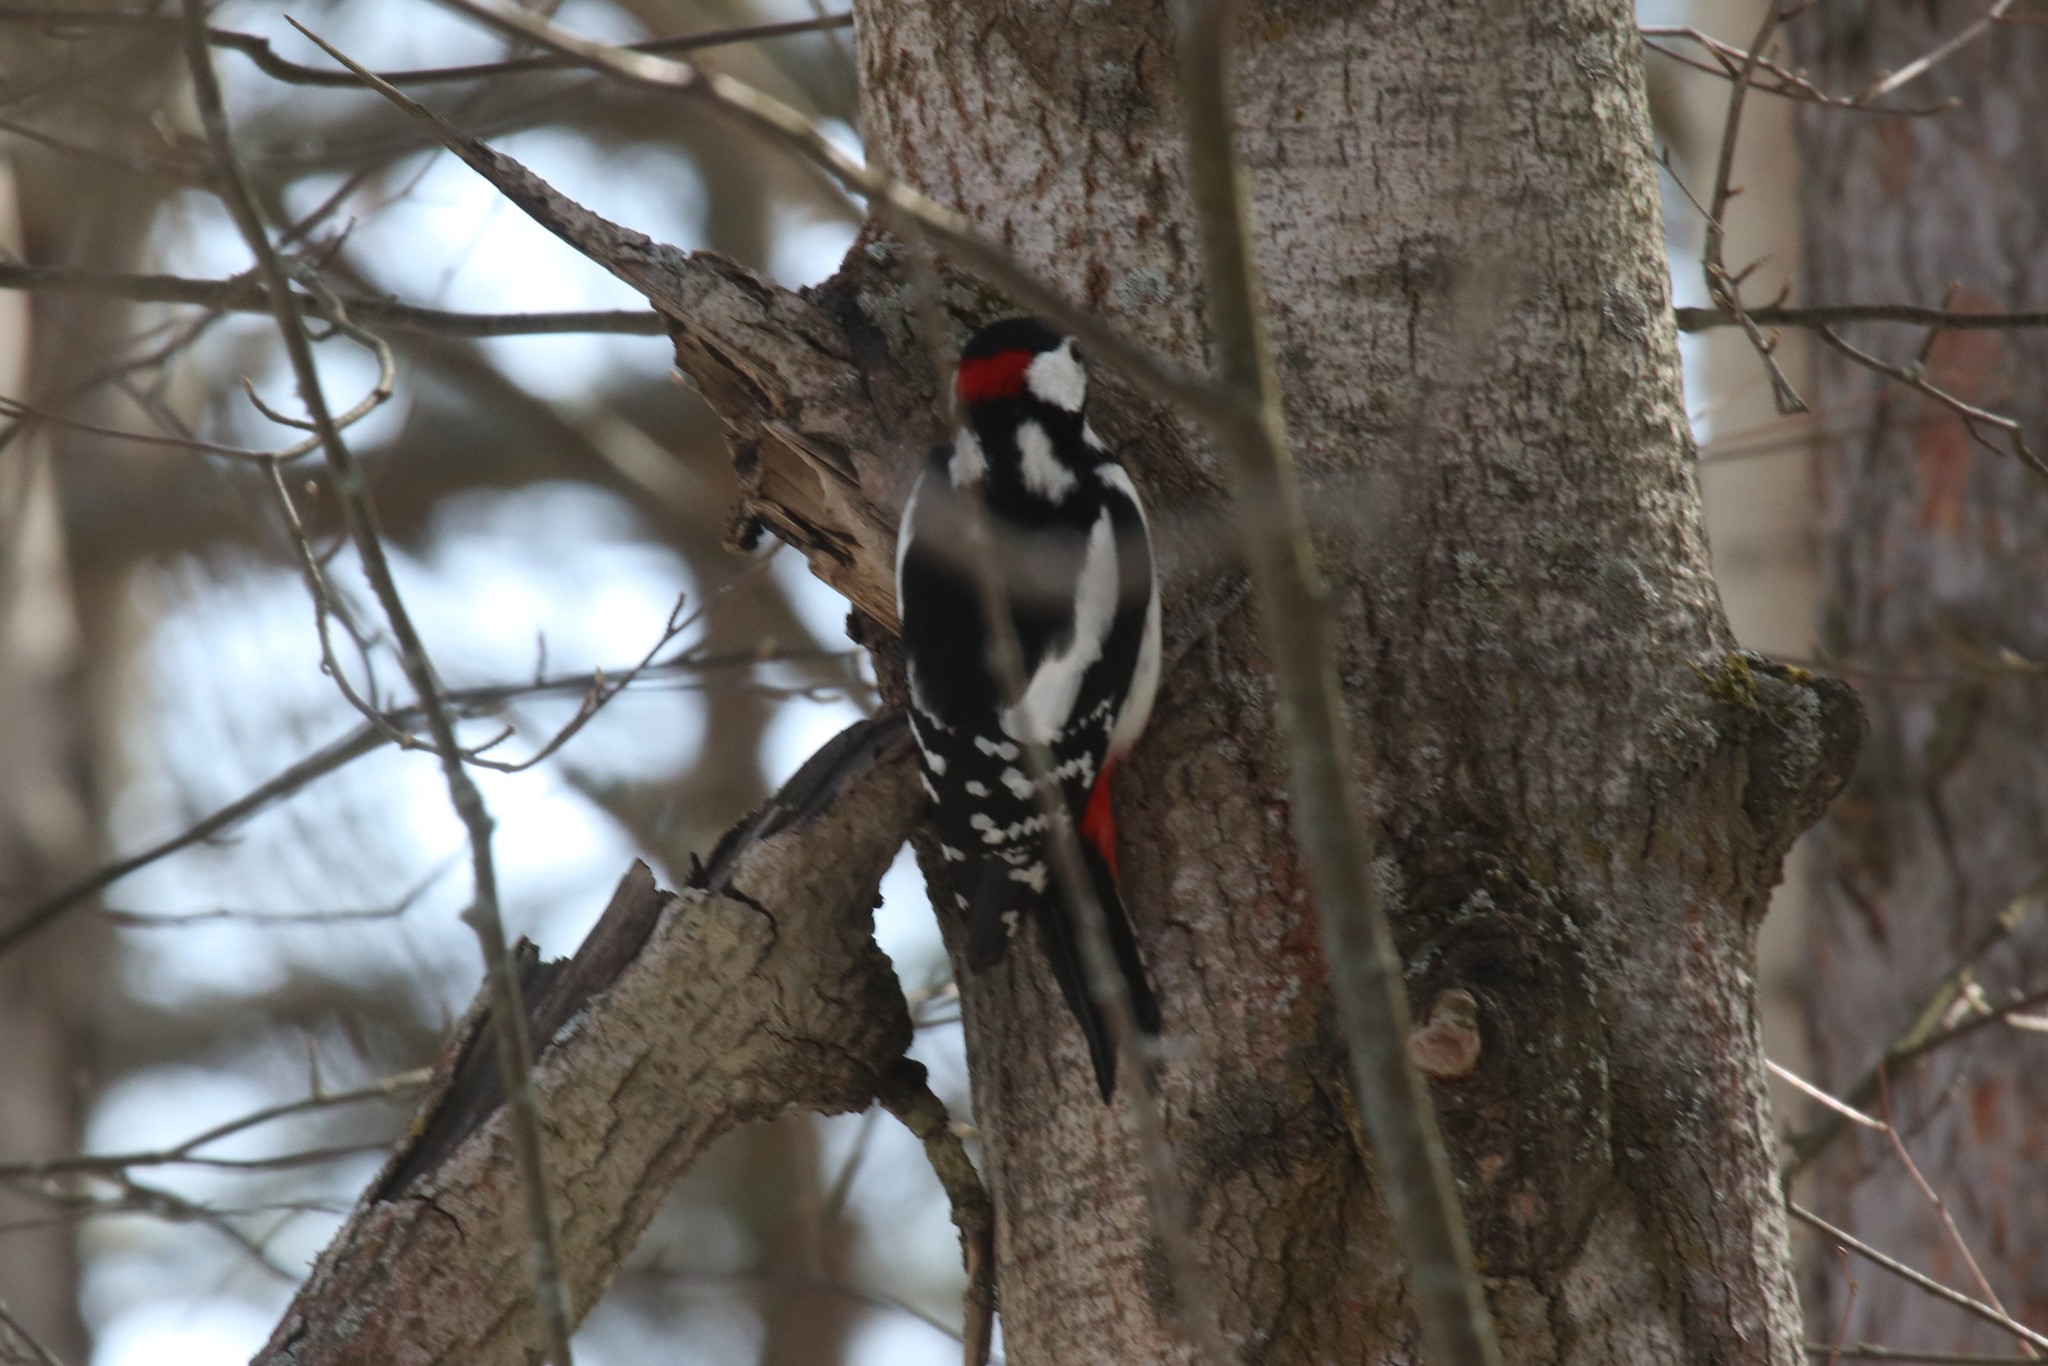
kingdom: Animalia
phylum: Chordata
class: Aves
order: Piciformes
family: Picidae
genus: Dendrocopos
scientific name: Dendrocopos major
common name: Great spotted woodpecker
